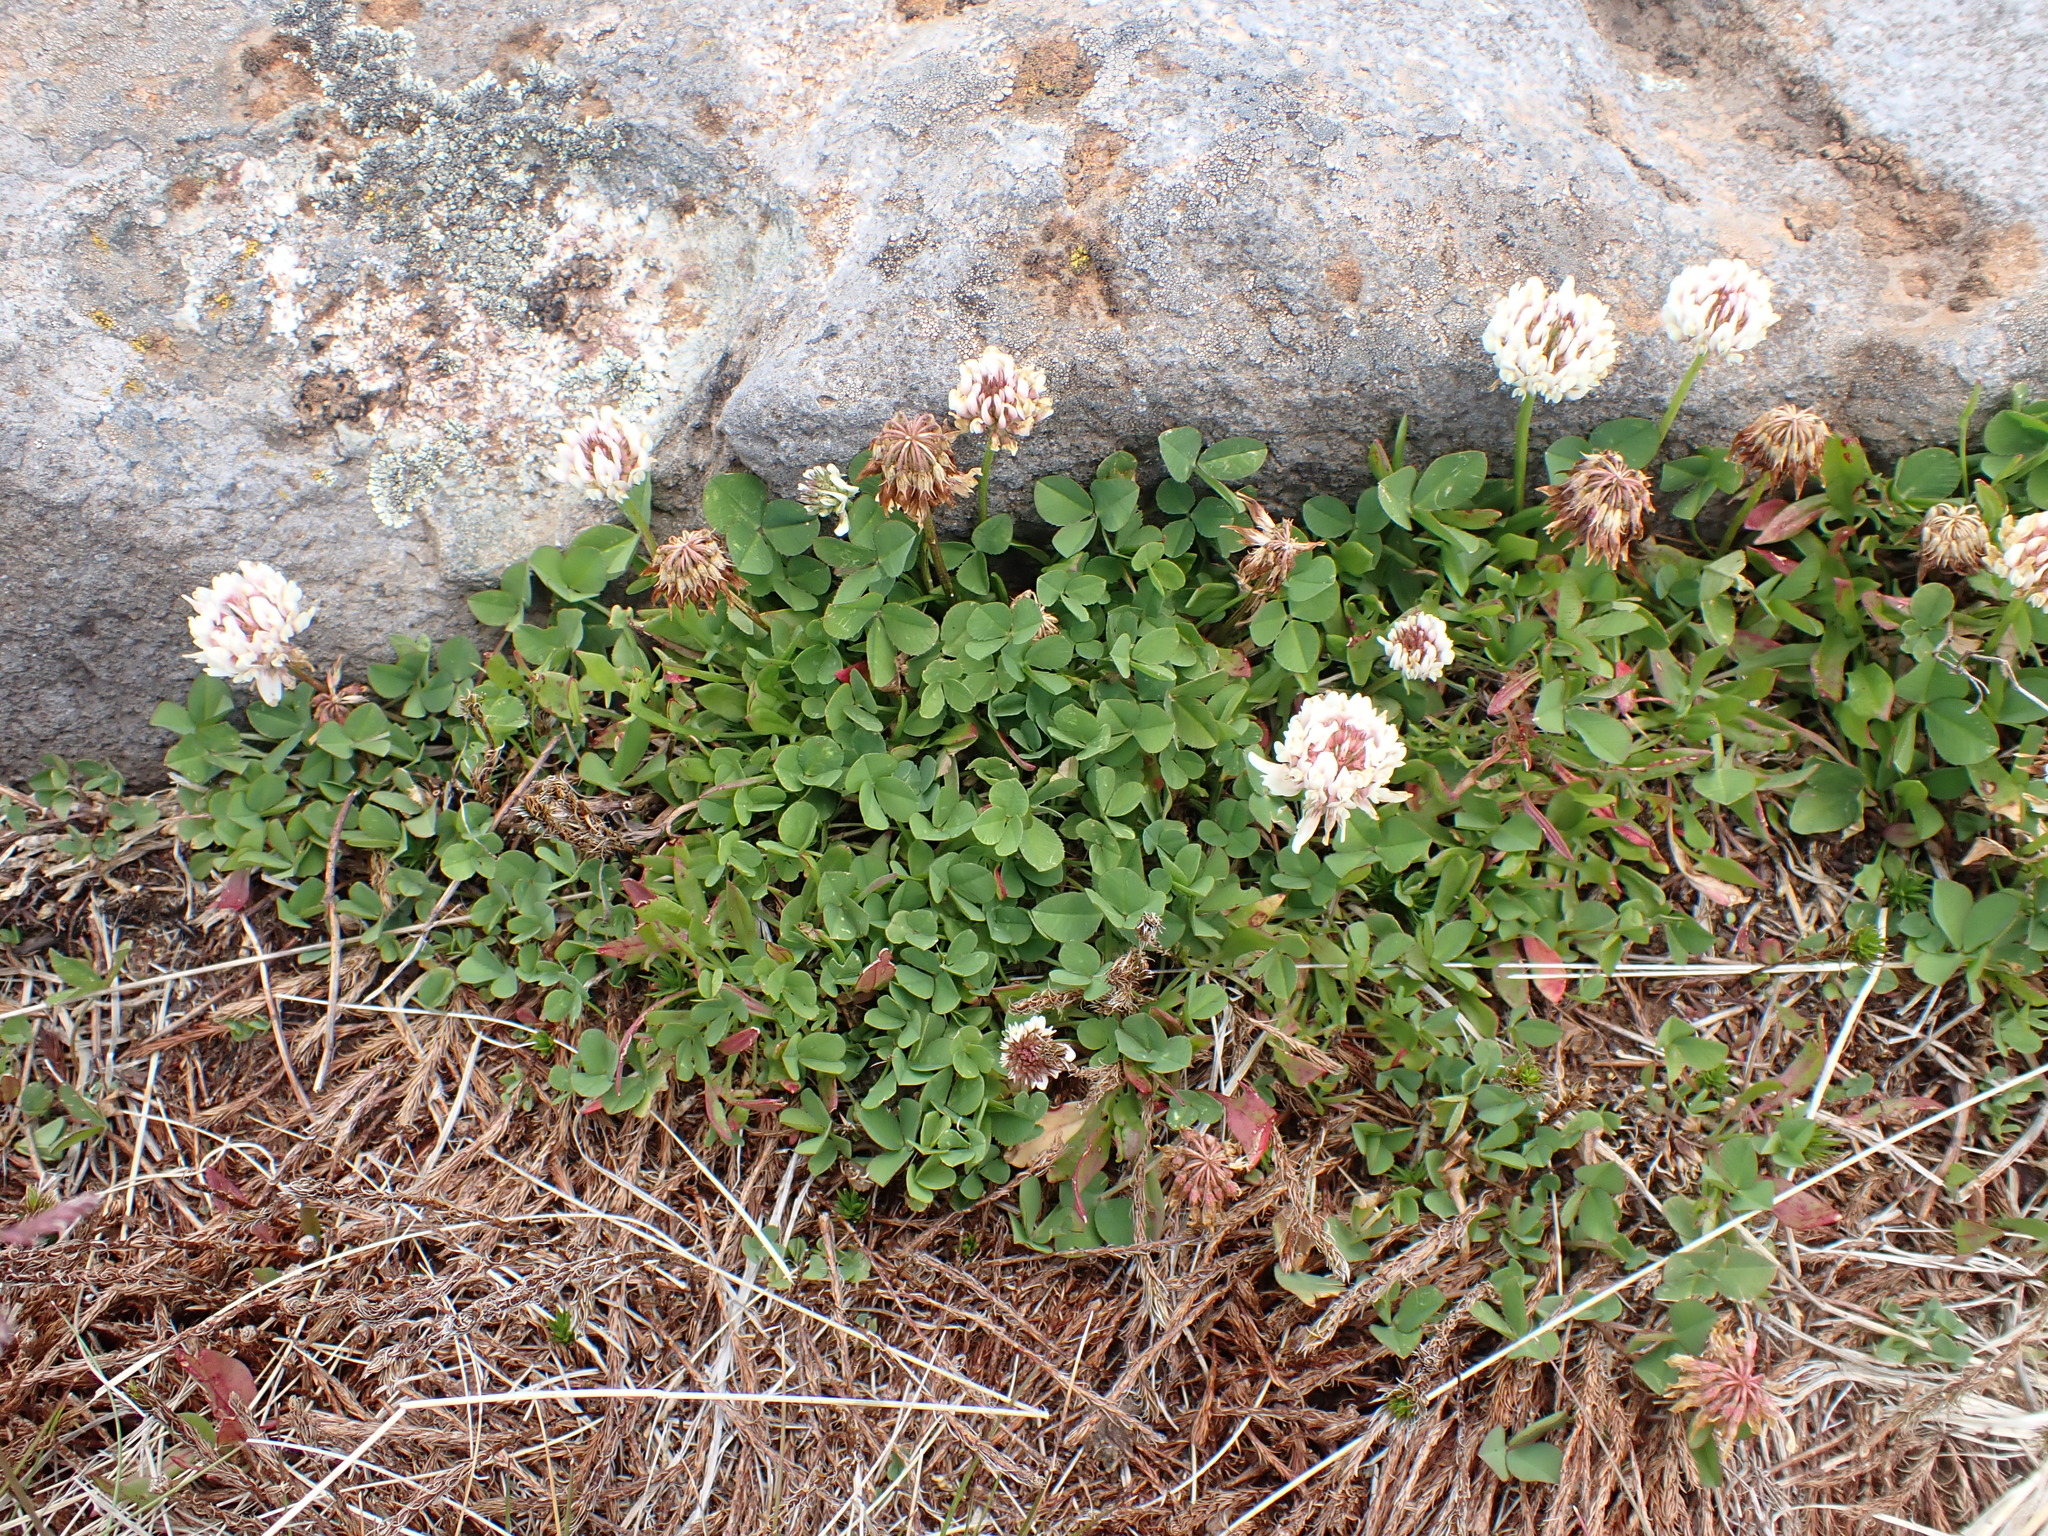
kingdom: Plantae
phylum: Tracheophyta
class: Magnoliopsida
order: Fabales
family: Fabaceae
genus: Trifolium
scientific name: Trifolium repens
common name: White clover
